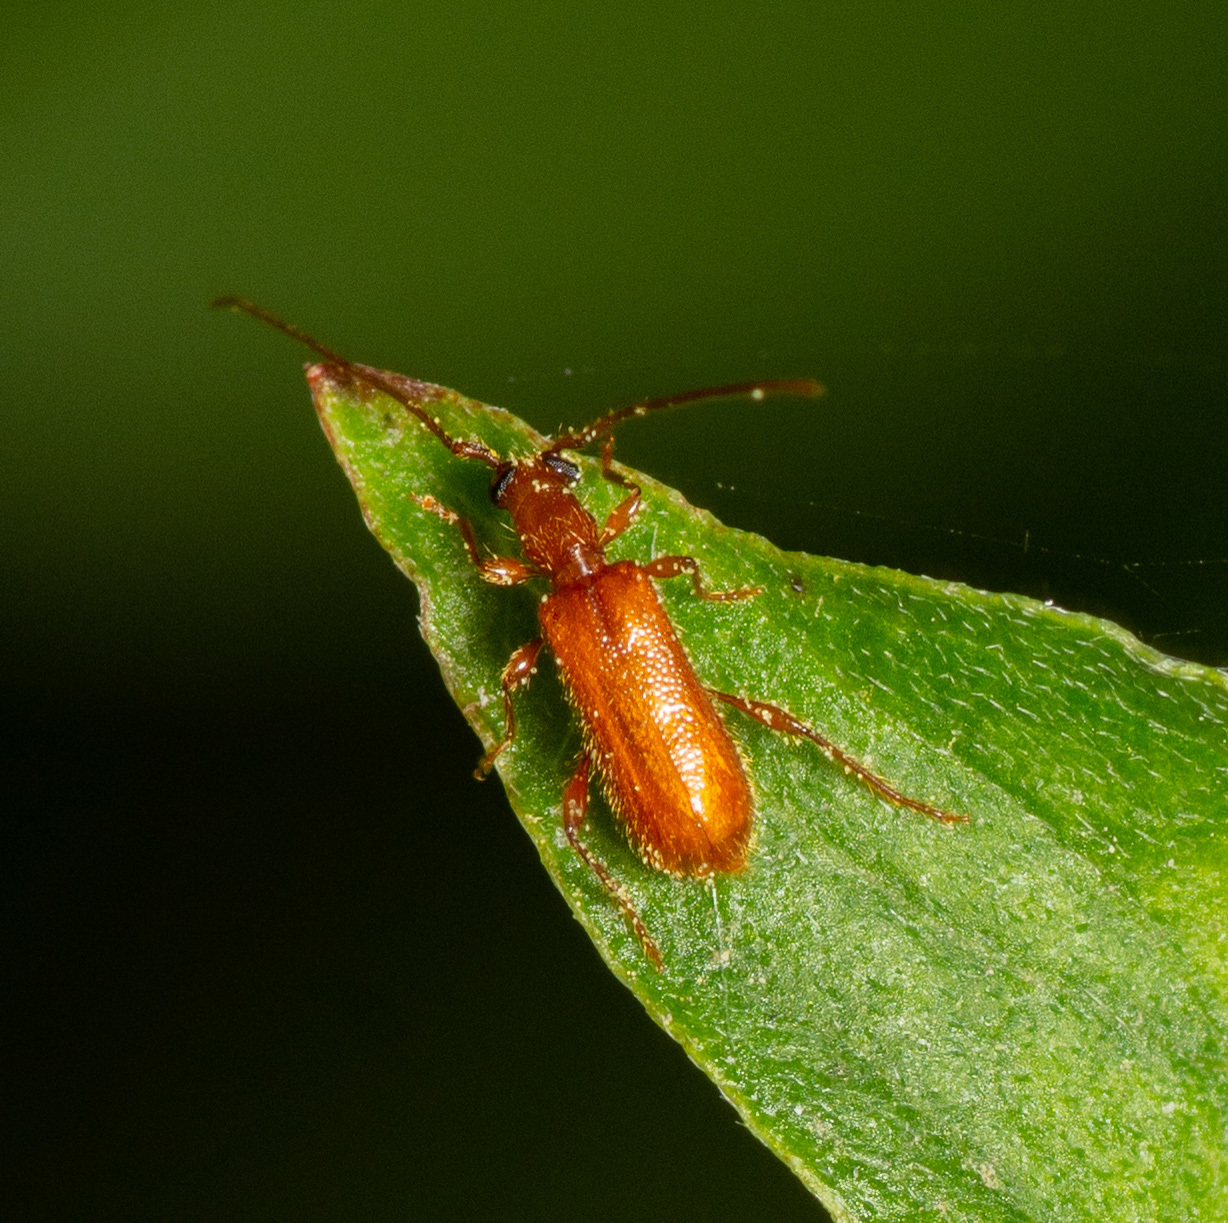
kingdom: Animalia
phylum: Arthropoda
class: Insecta
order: Coleoptera
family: Cerambycidae
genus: Obrium
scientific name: Obrium rufulum
